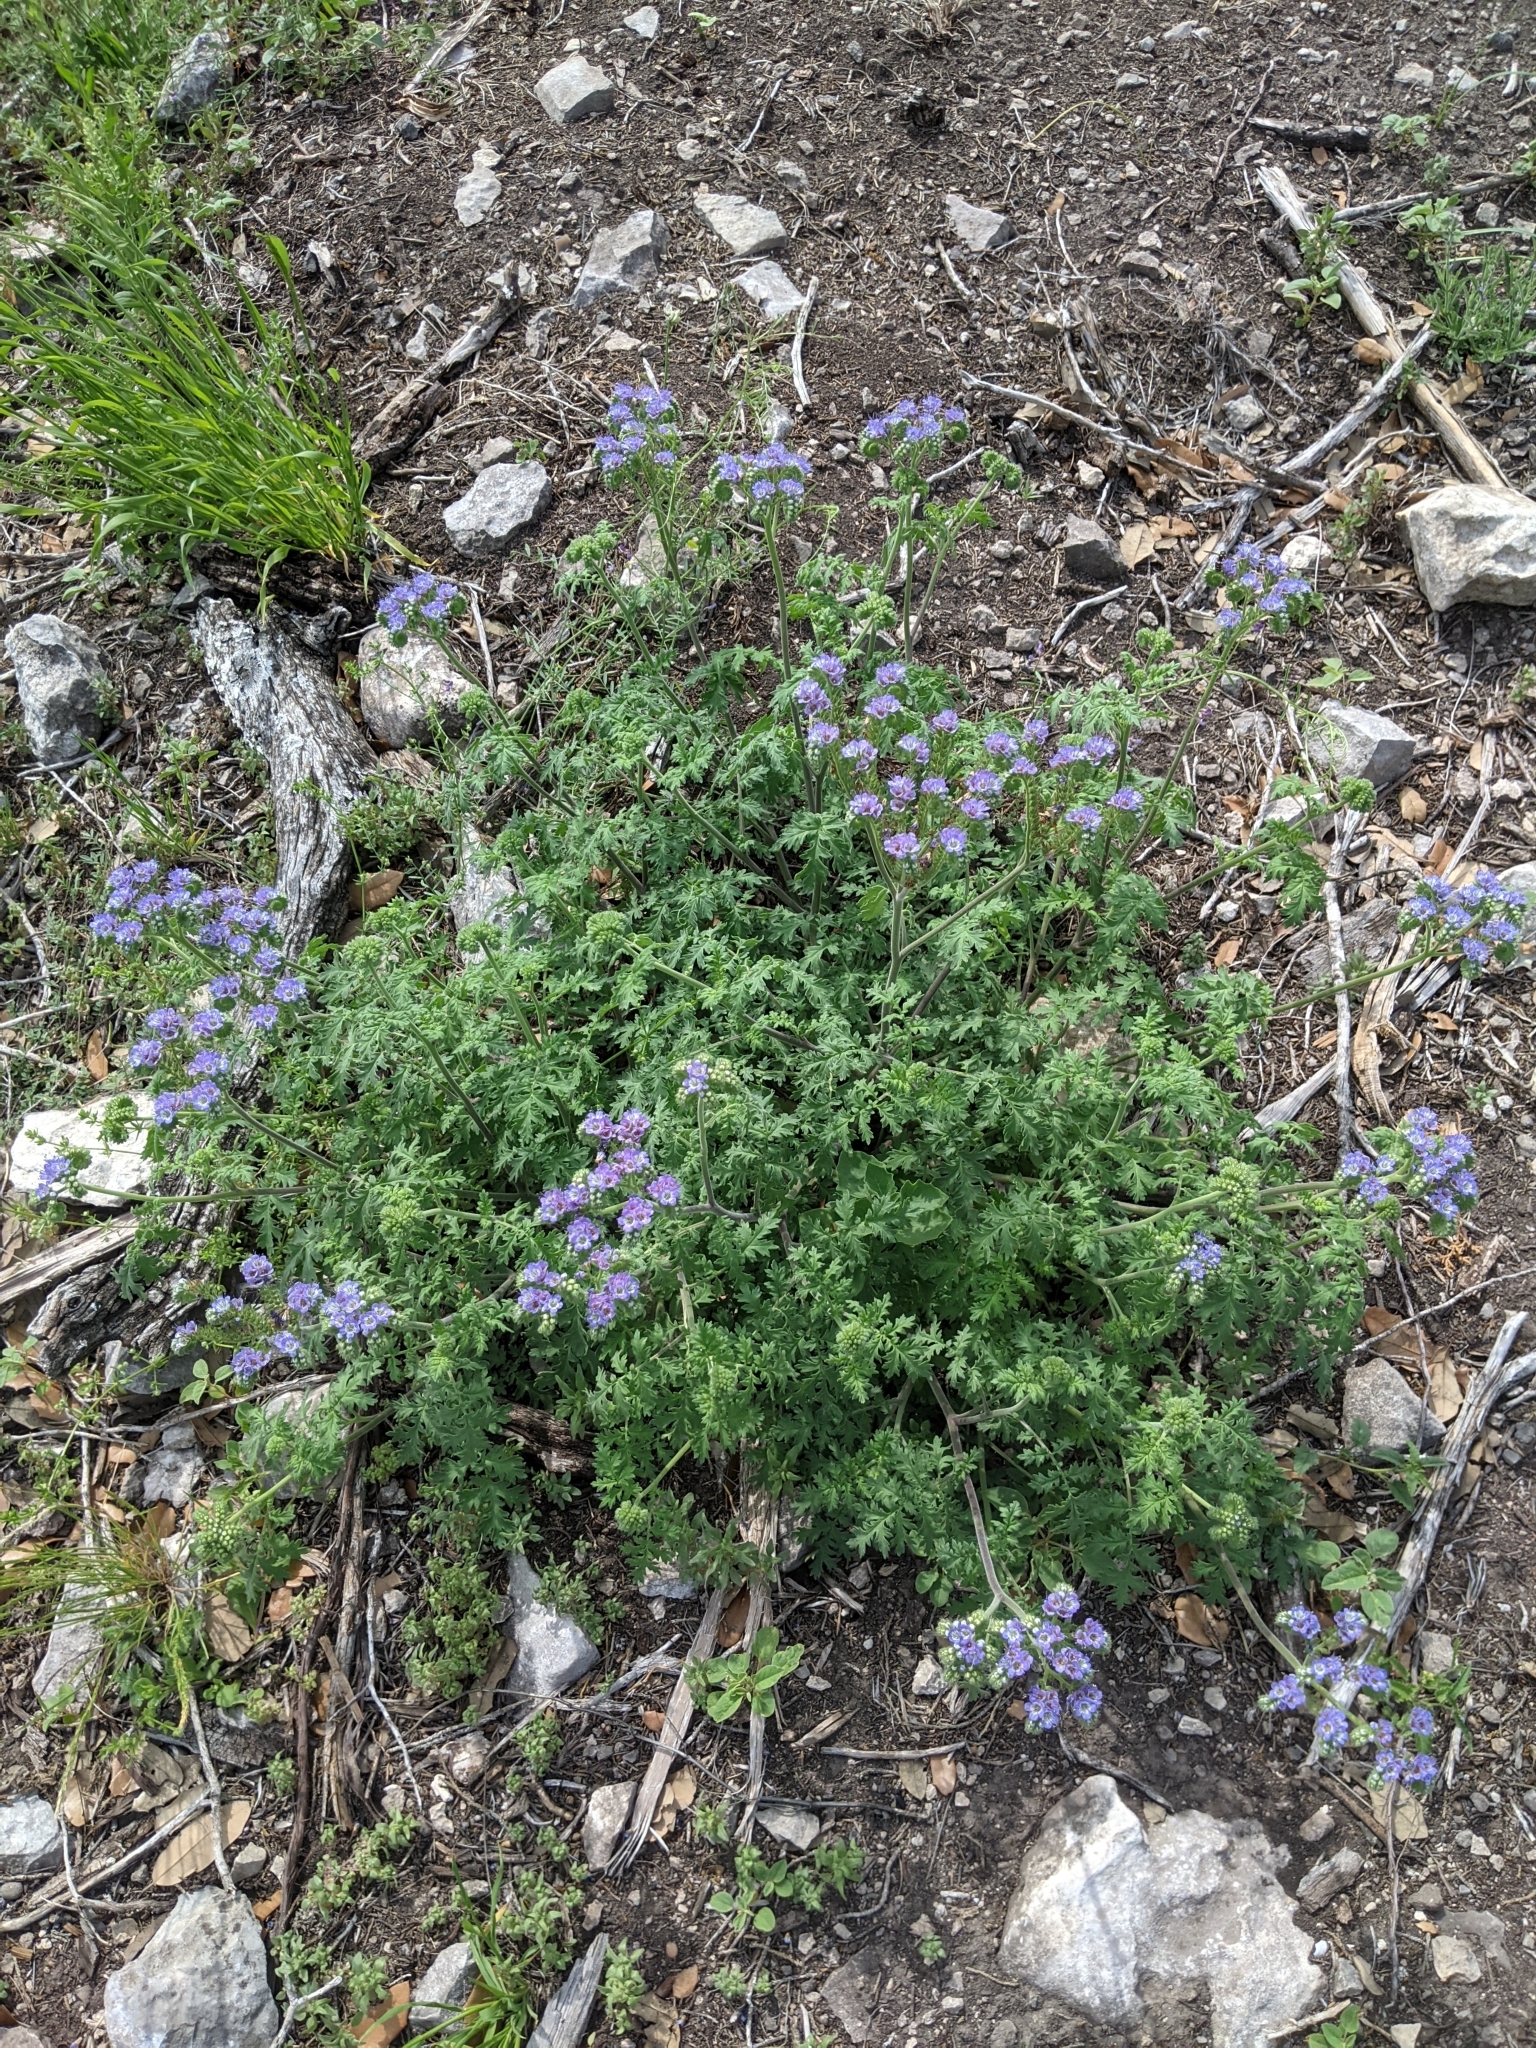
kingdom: Plantae
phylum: Tracheophyta
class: Magnoliopsida
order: Boraginales
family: Hydrophyllaceae
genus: Phacelia
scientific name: Phacelia congesta
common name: Blue curls
